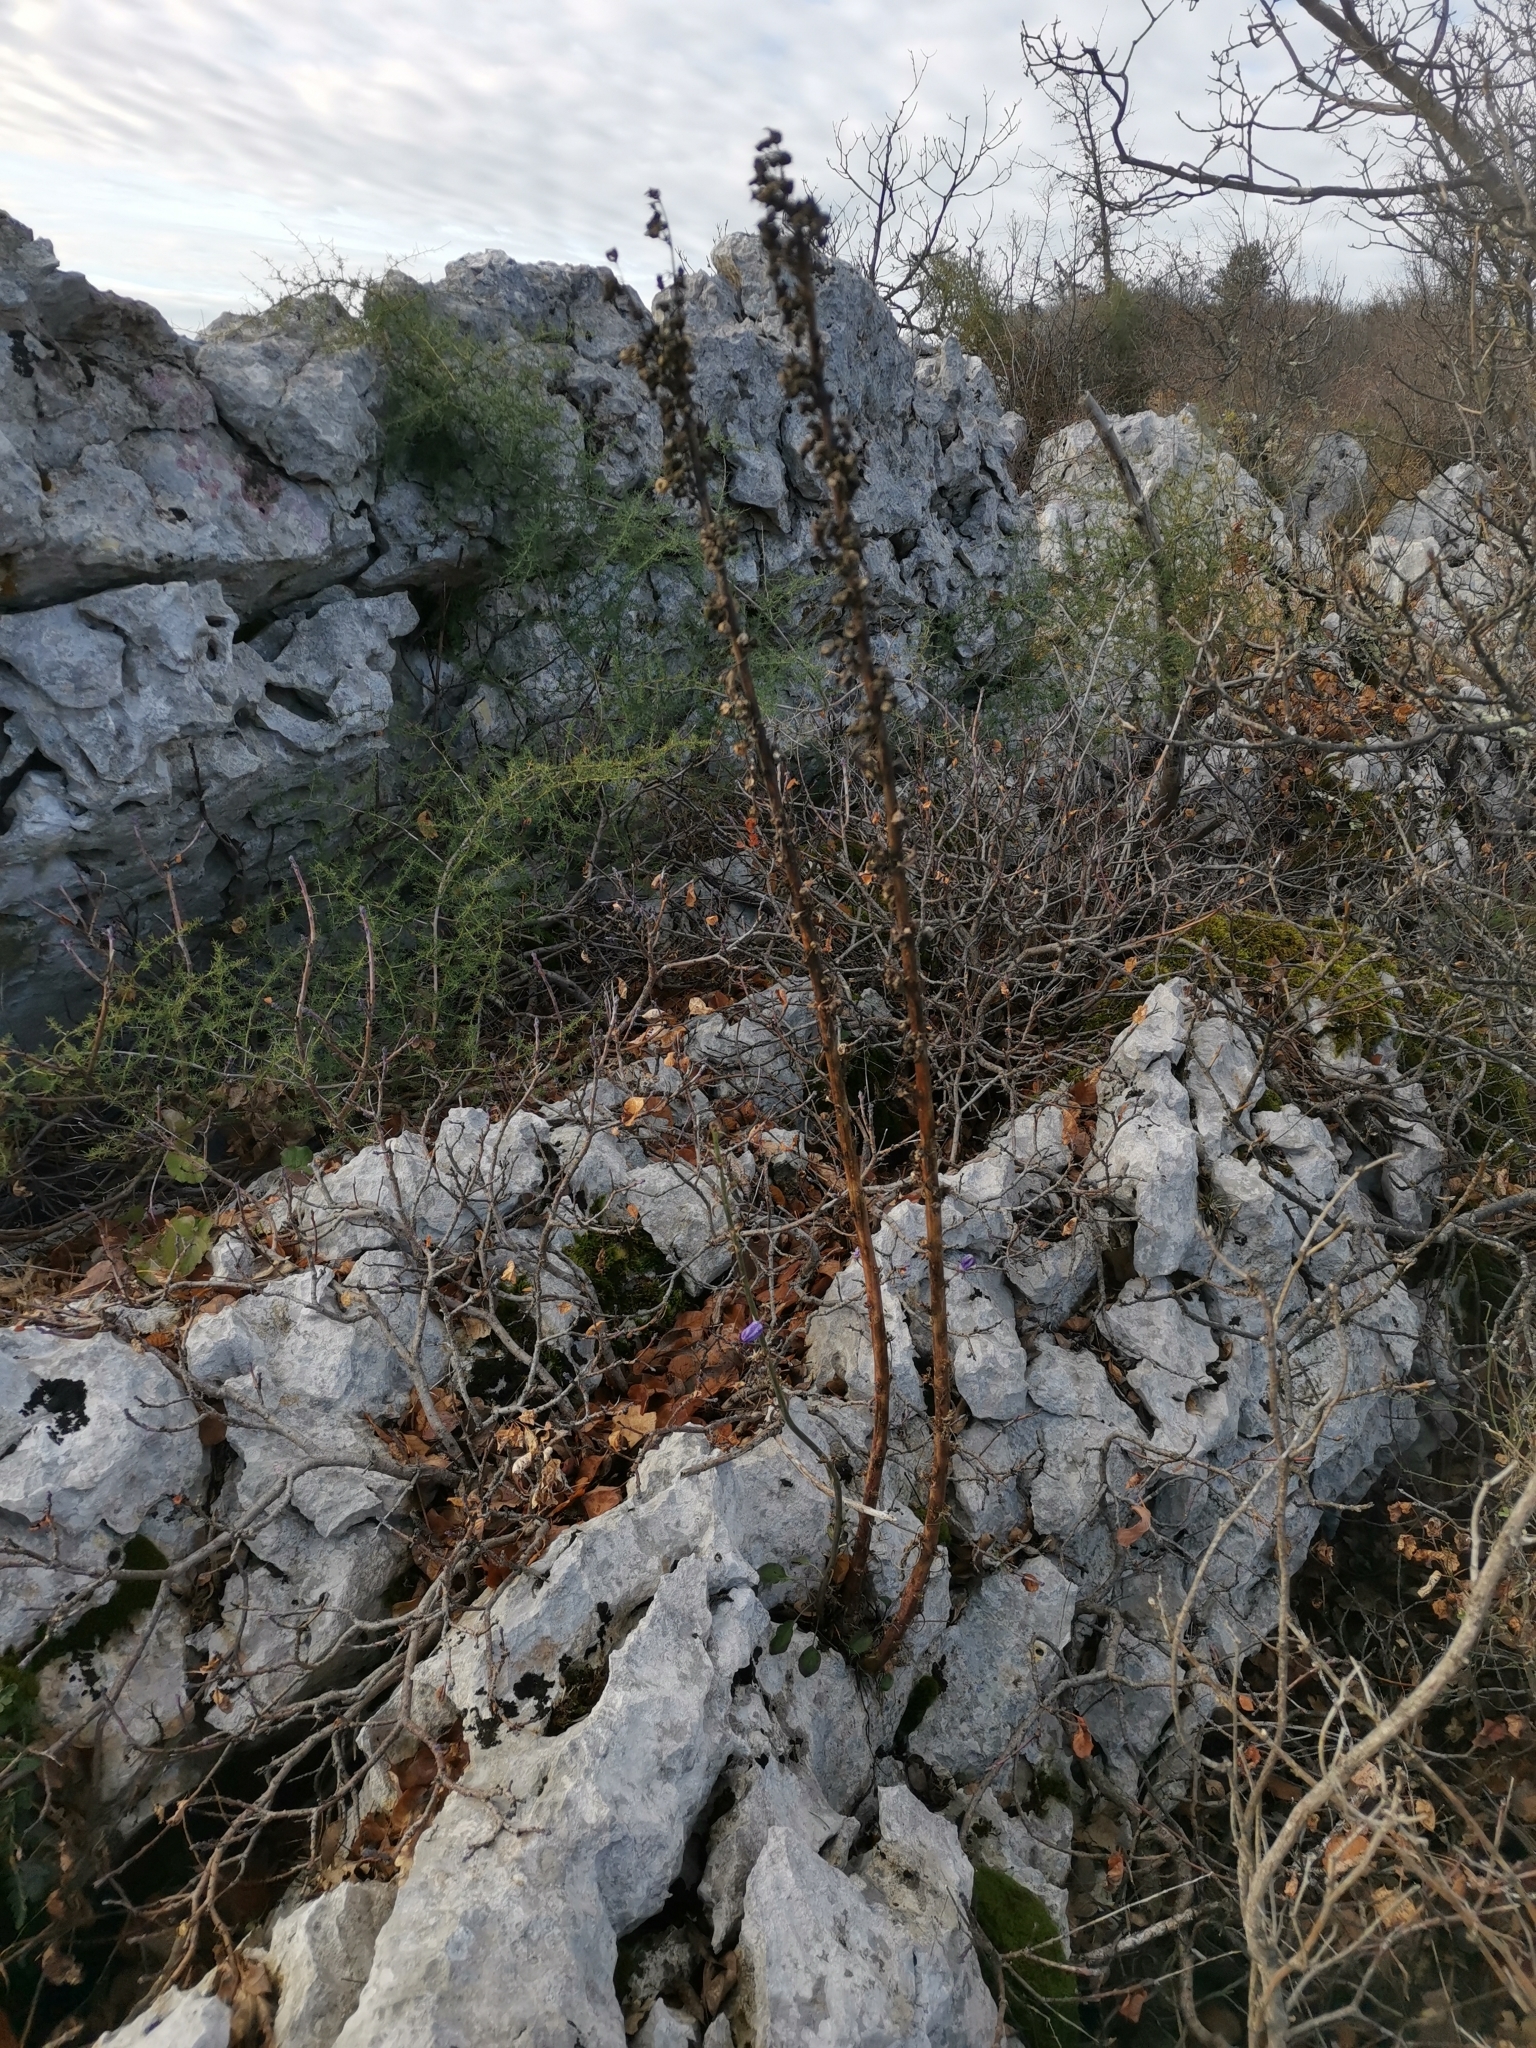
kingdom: Plantae
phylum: Tracheophyta
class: Magnoliopsida
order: Asterales
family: Campanulaceae
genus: Campanula
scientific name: Campanula pyramidalis
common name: Chimney bellflower
